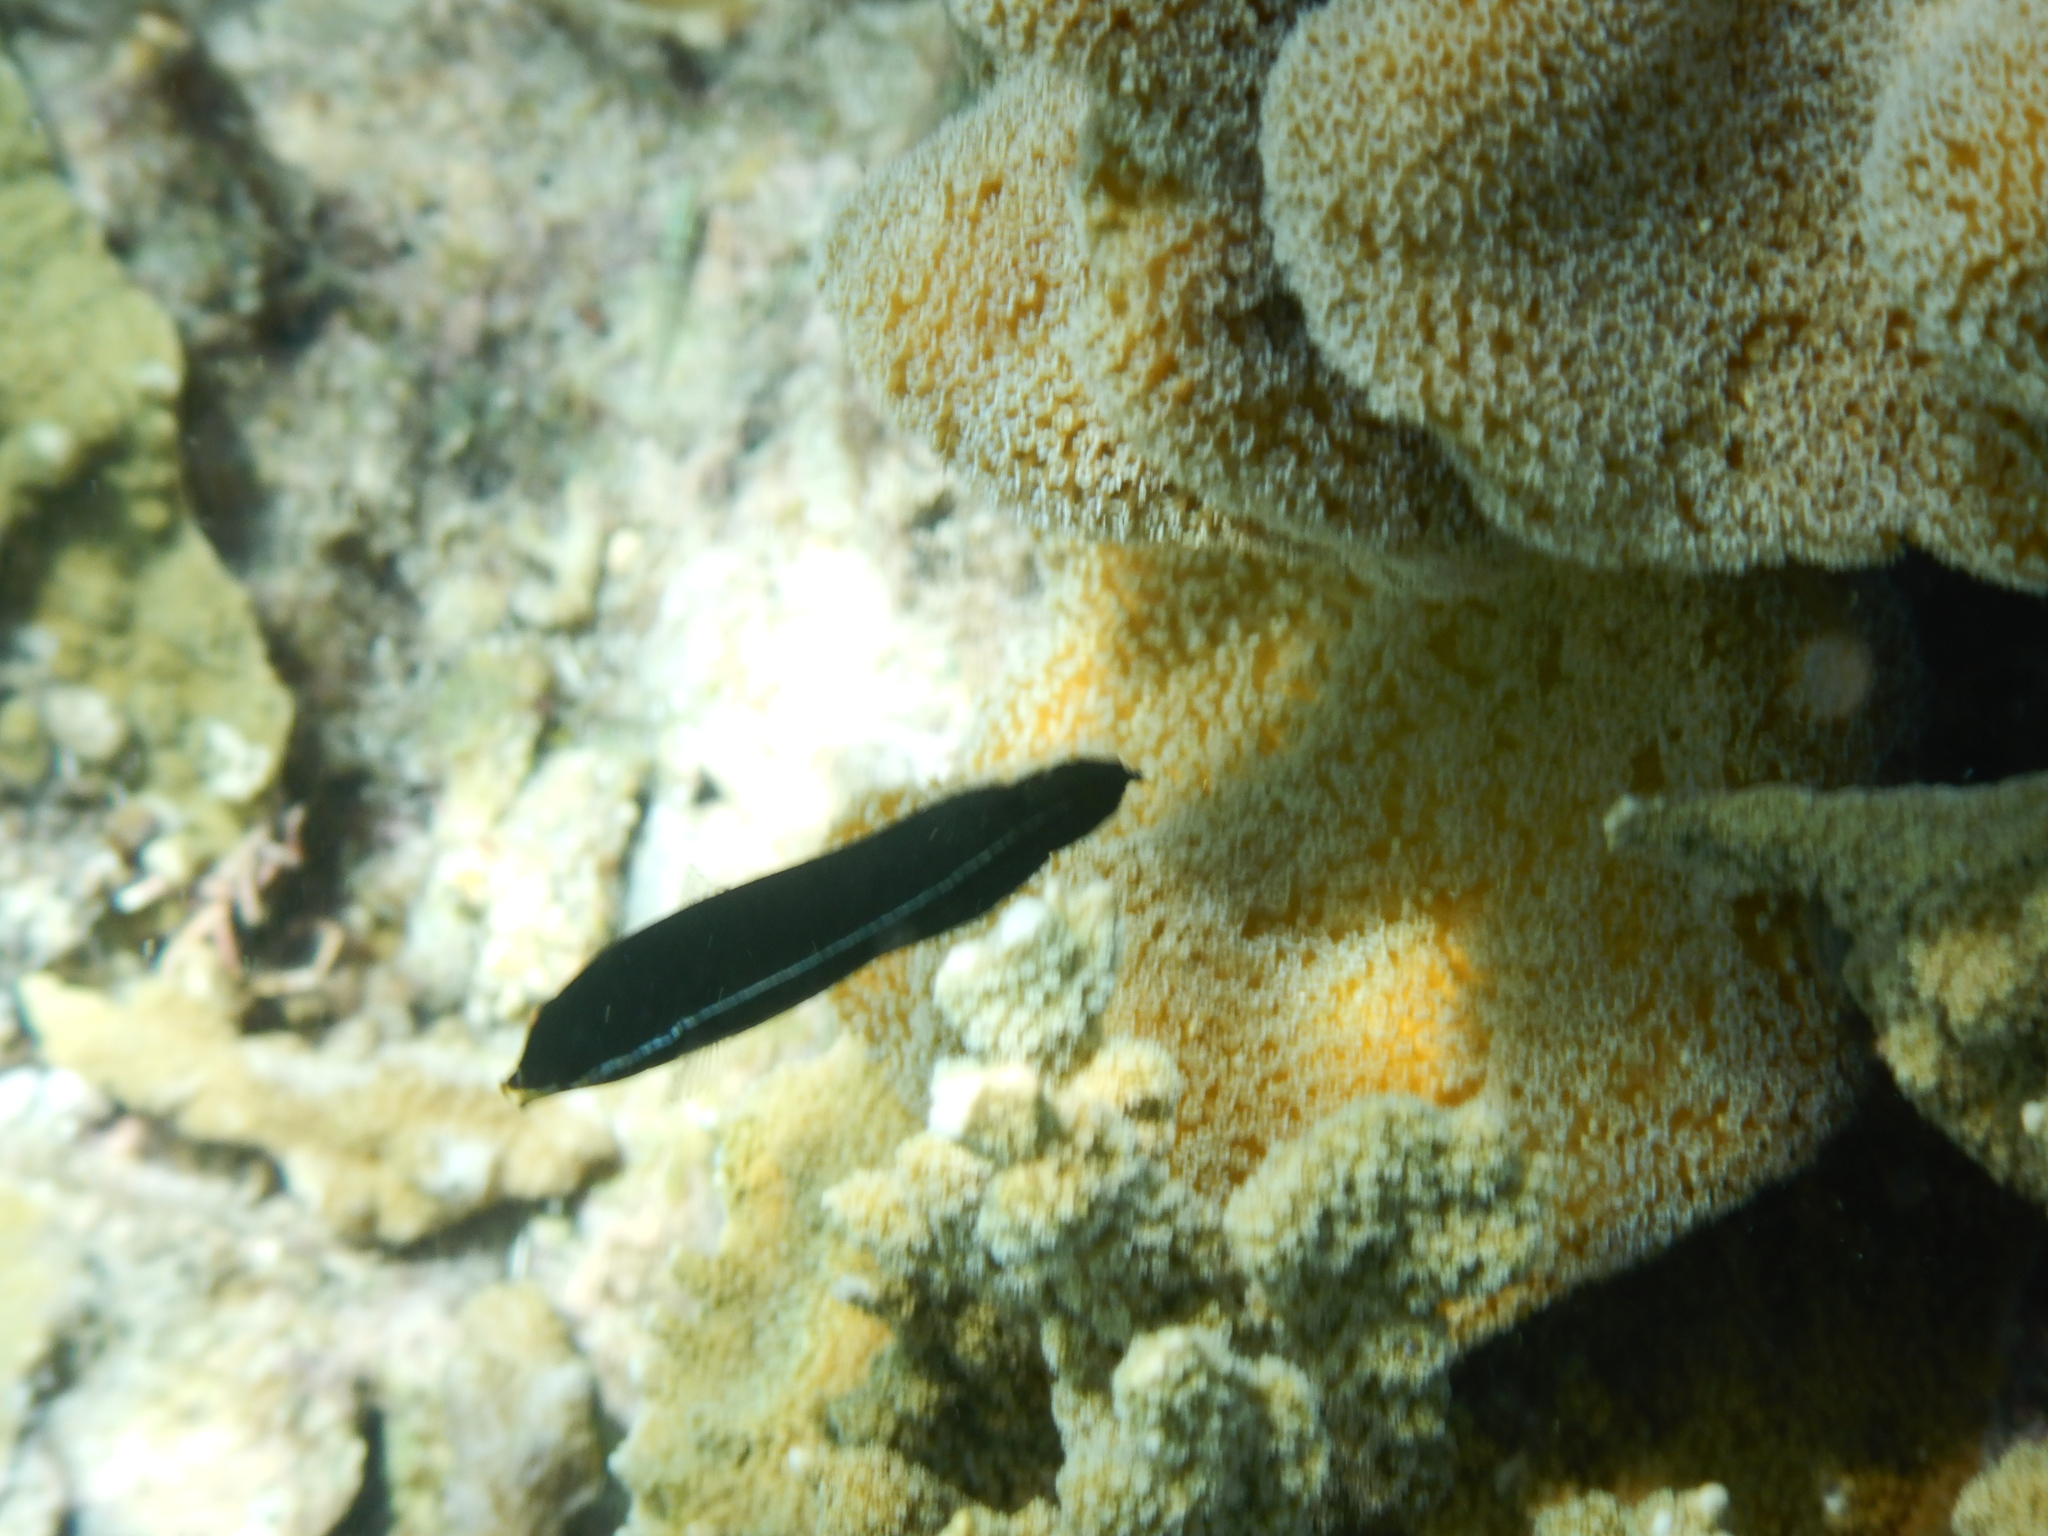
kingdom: Animalia
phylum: Chordata
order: Perciformes
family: Labridae
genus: Labrichthys
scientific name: Labrichthys unilineatus
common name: Onelined wrasse
